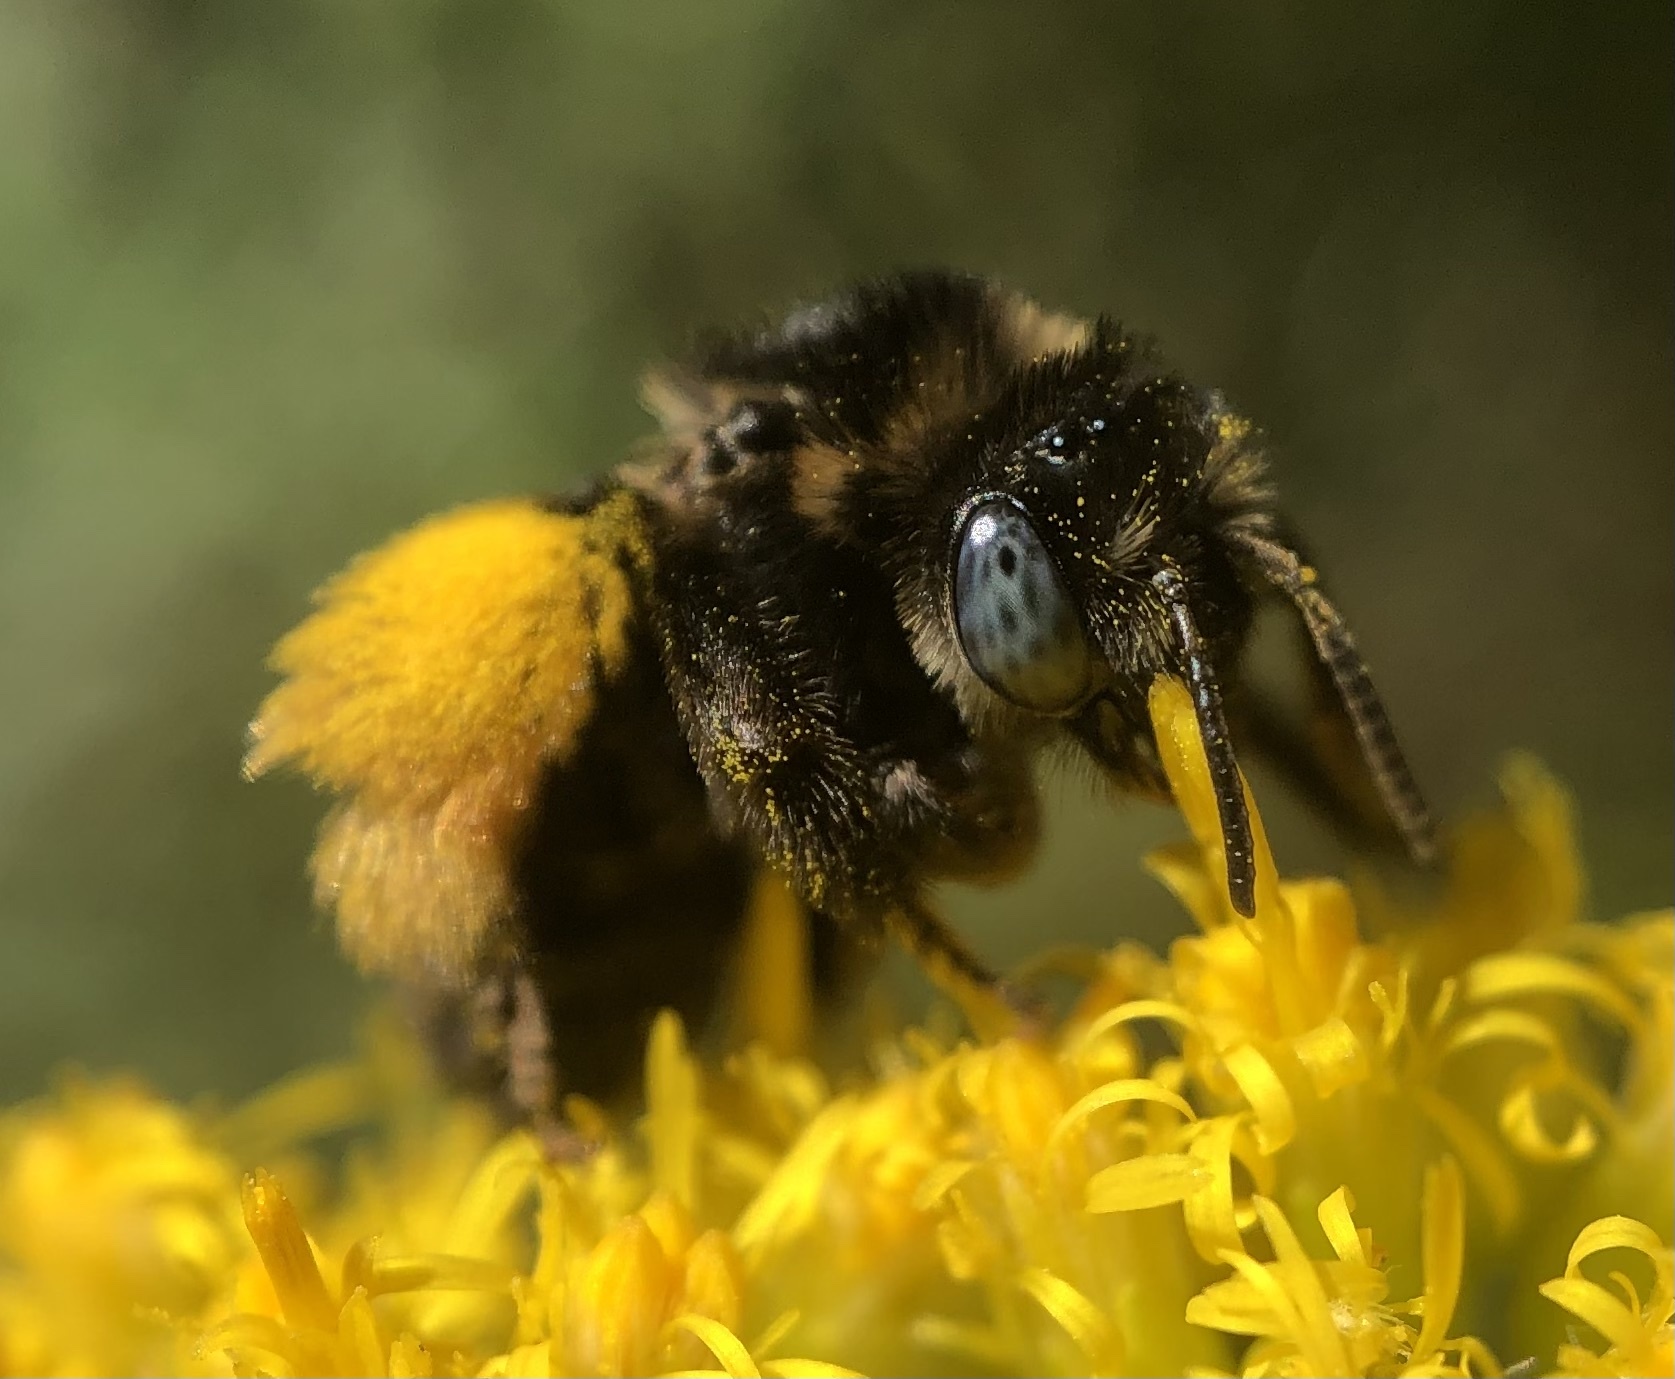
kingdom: Animalia
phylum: Arthropoda
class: Insecta
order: Hymenoptera
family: Apidae
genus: Melissodes
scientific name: Melissodes druriellus
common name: Drury's long-horned bee
